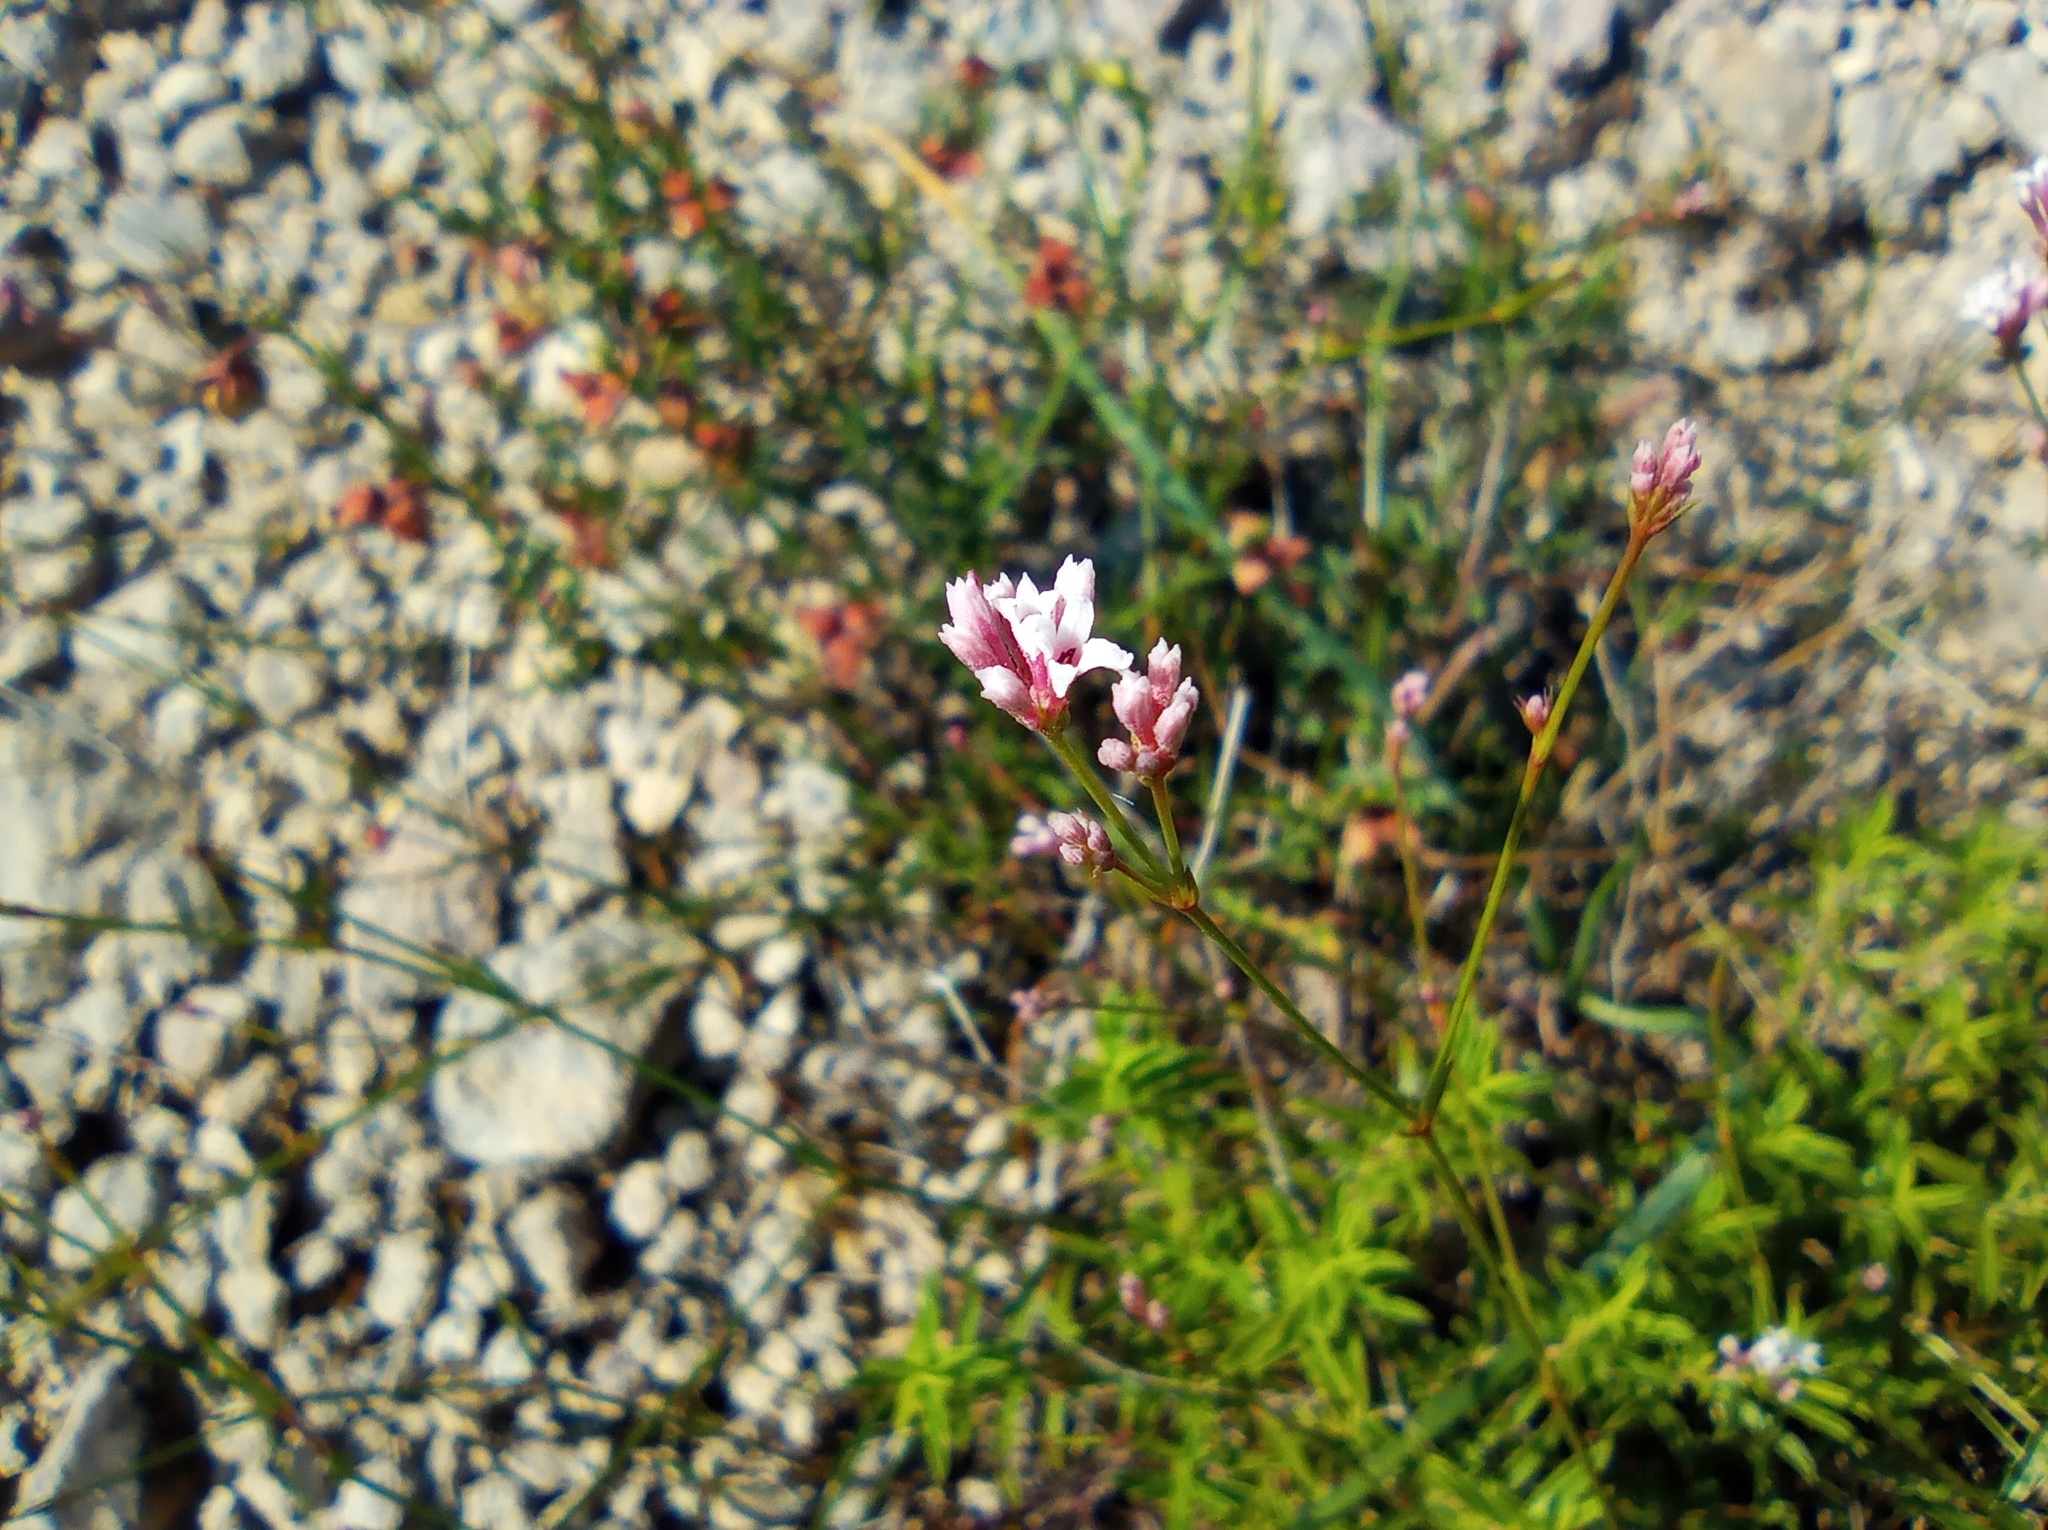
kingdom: Plantae
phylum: Tracheophyta
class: Magnoliopsida
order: Gentianales
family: Rubiaceae
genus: Cynanchica
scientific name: Cynanchica pyrenaica
